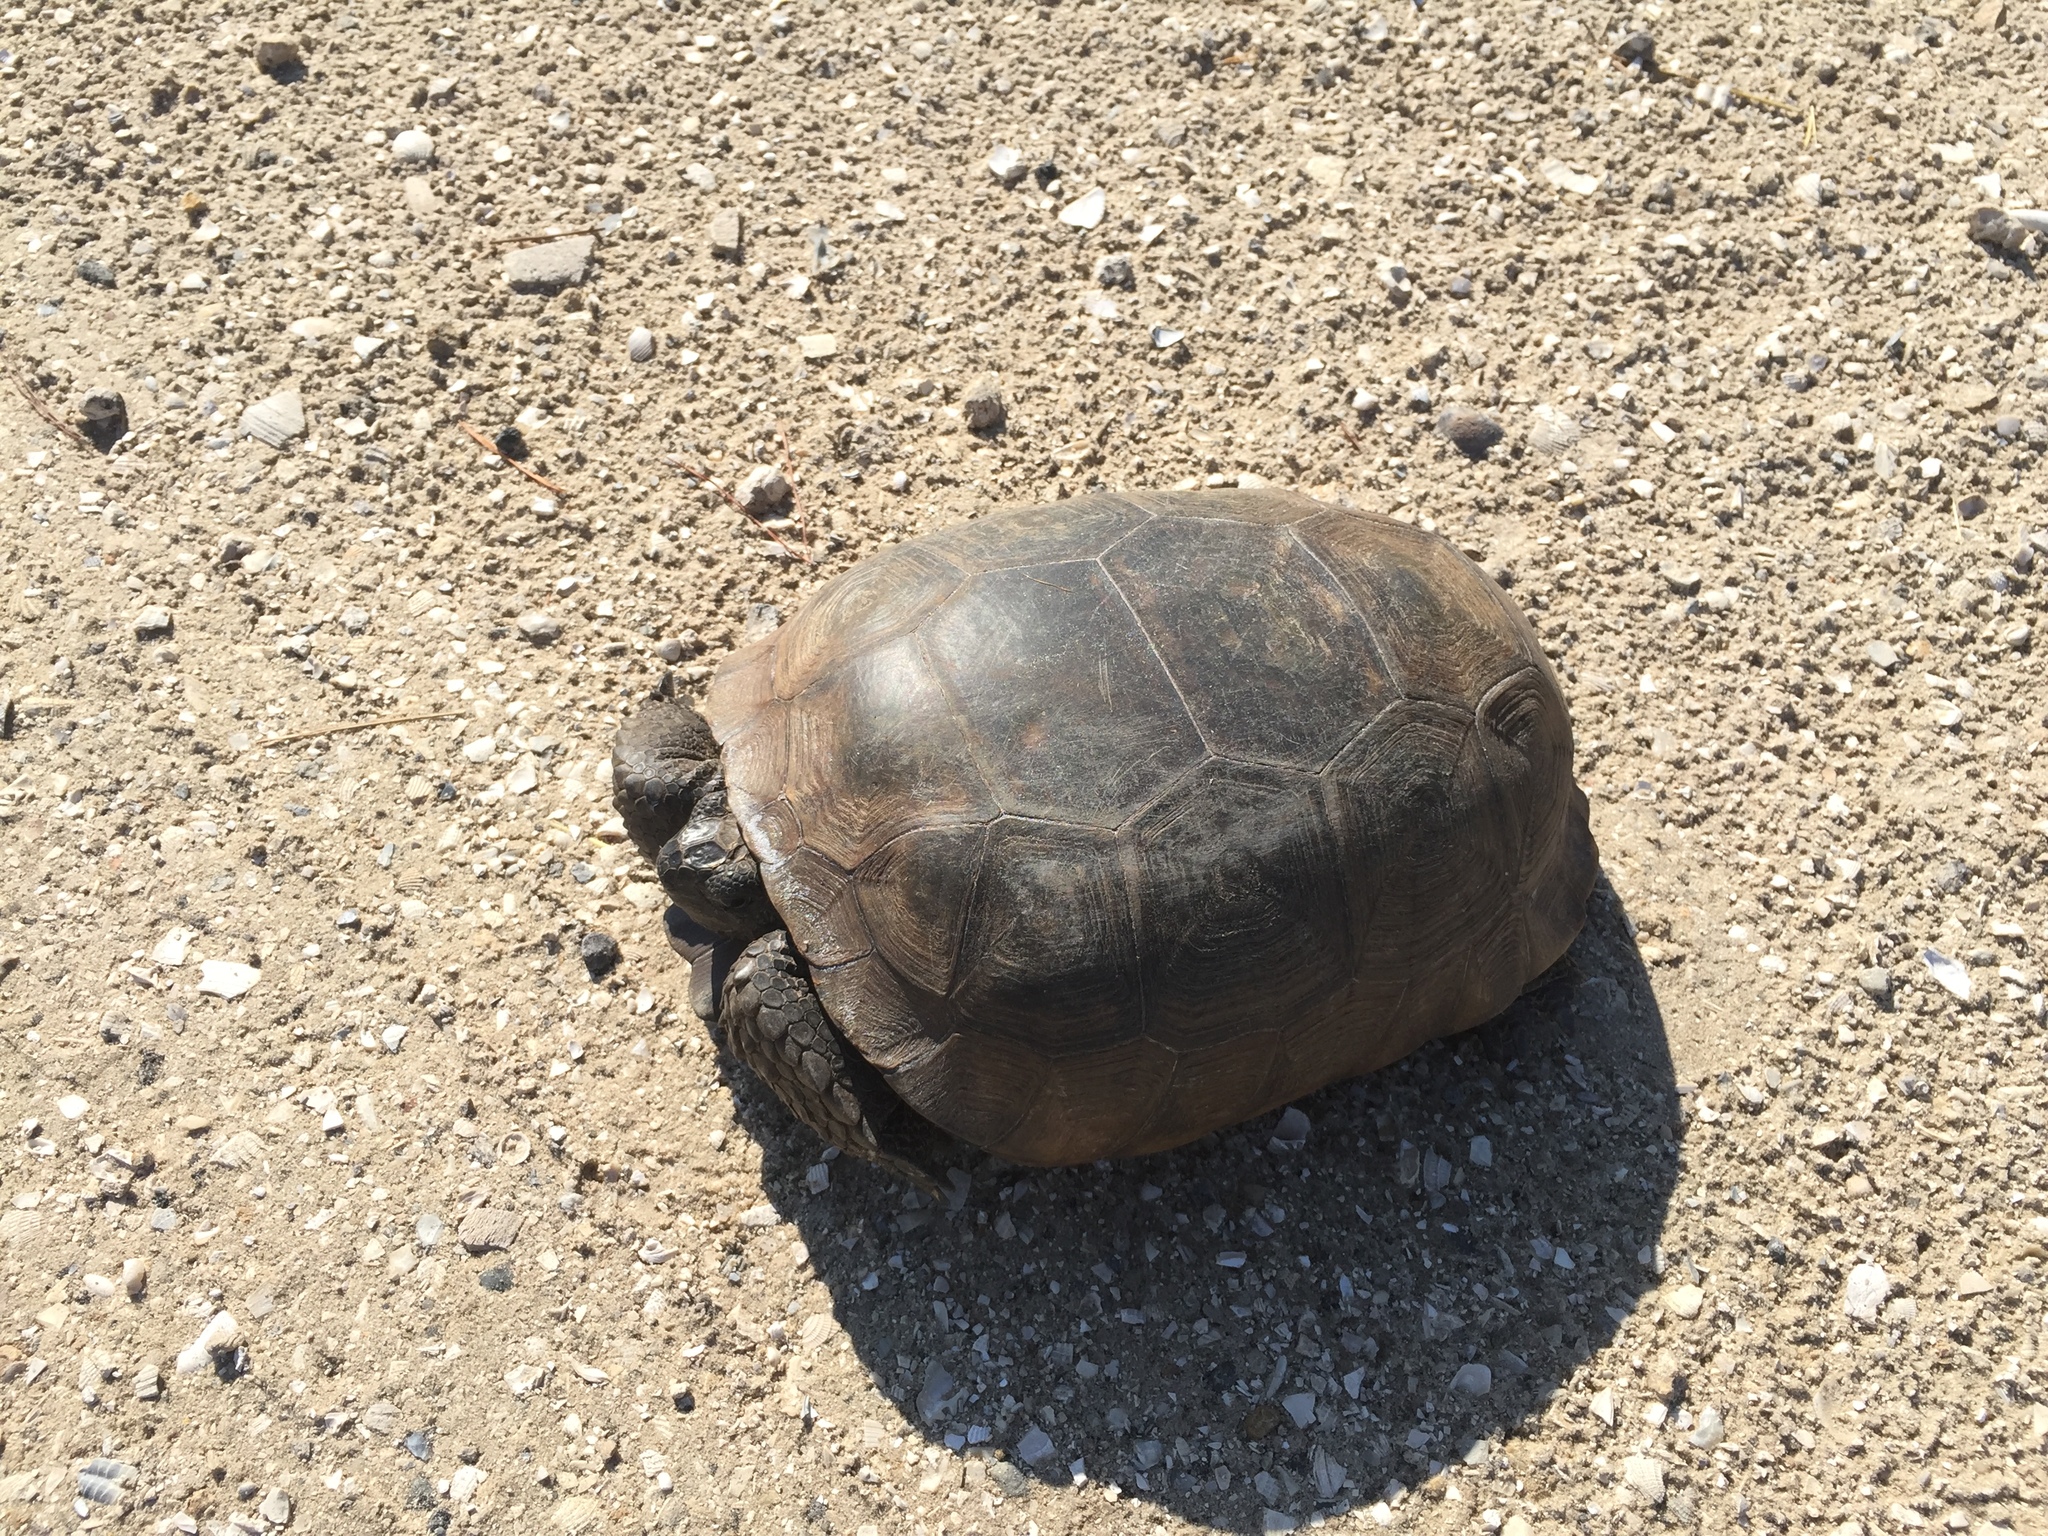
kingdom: Animalia
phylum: Chordata
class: Testudines
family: Testudinidae
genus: Gopherus
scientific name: Gopherus polyphemus
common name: Florida gopher tortoise
